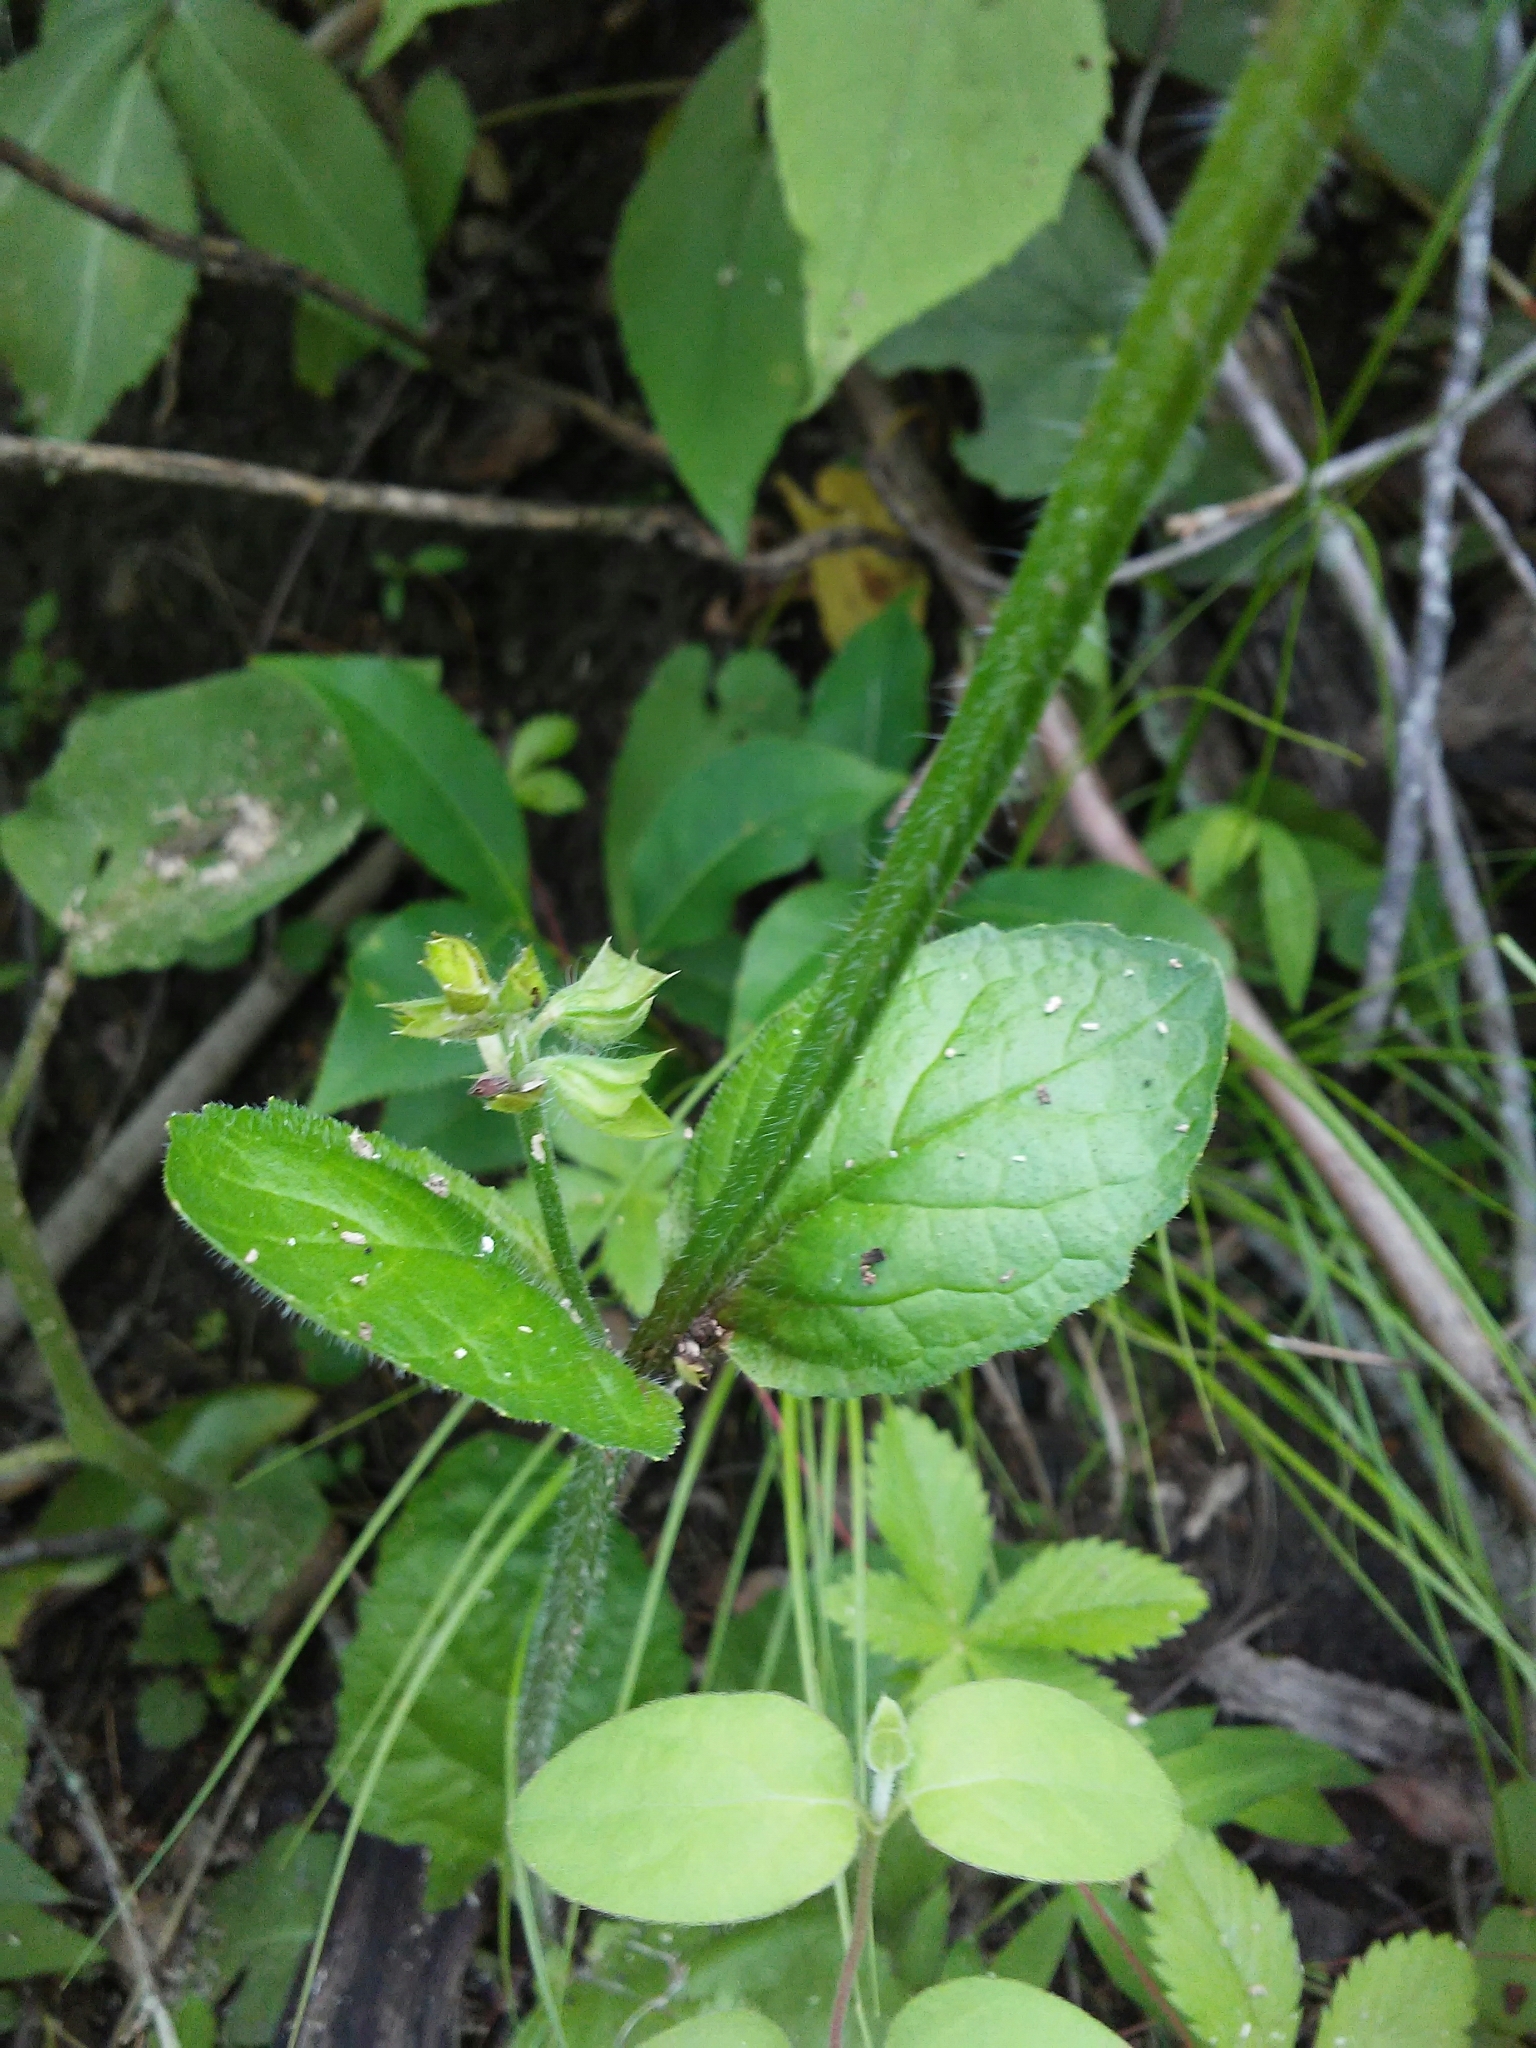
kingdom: Plantae
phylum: Tracheophyta
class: Magnoliopsida
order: Lamiales
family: Lamiaceae
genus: Salvia
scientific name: Salvia lyrata
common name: Cancerweed
